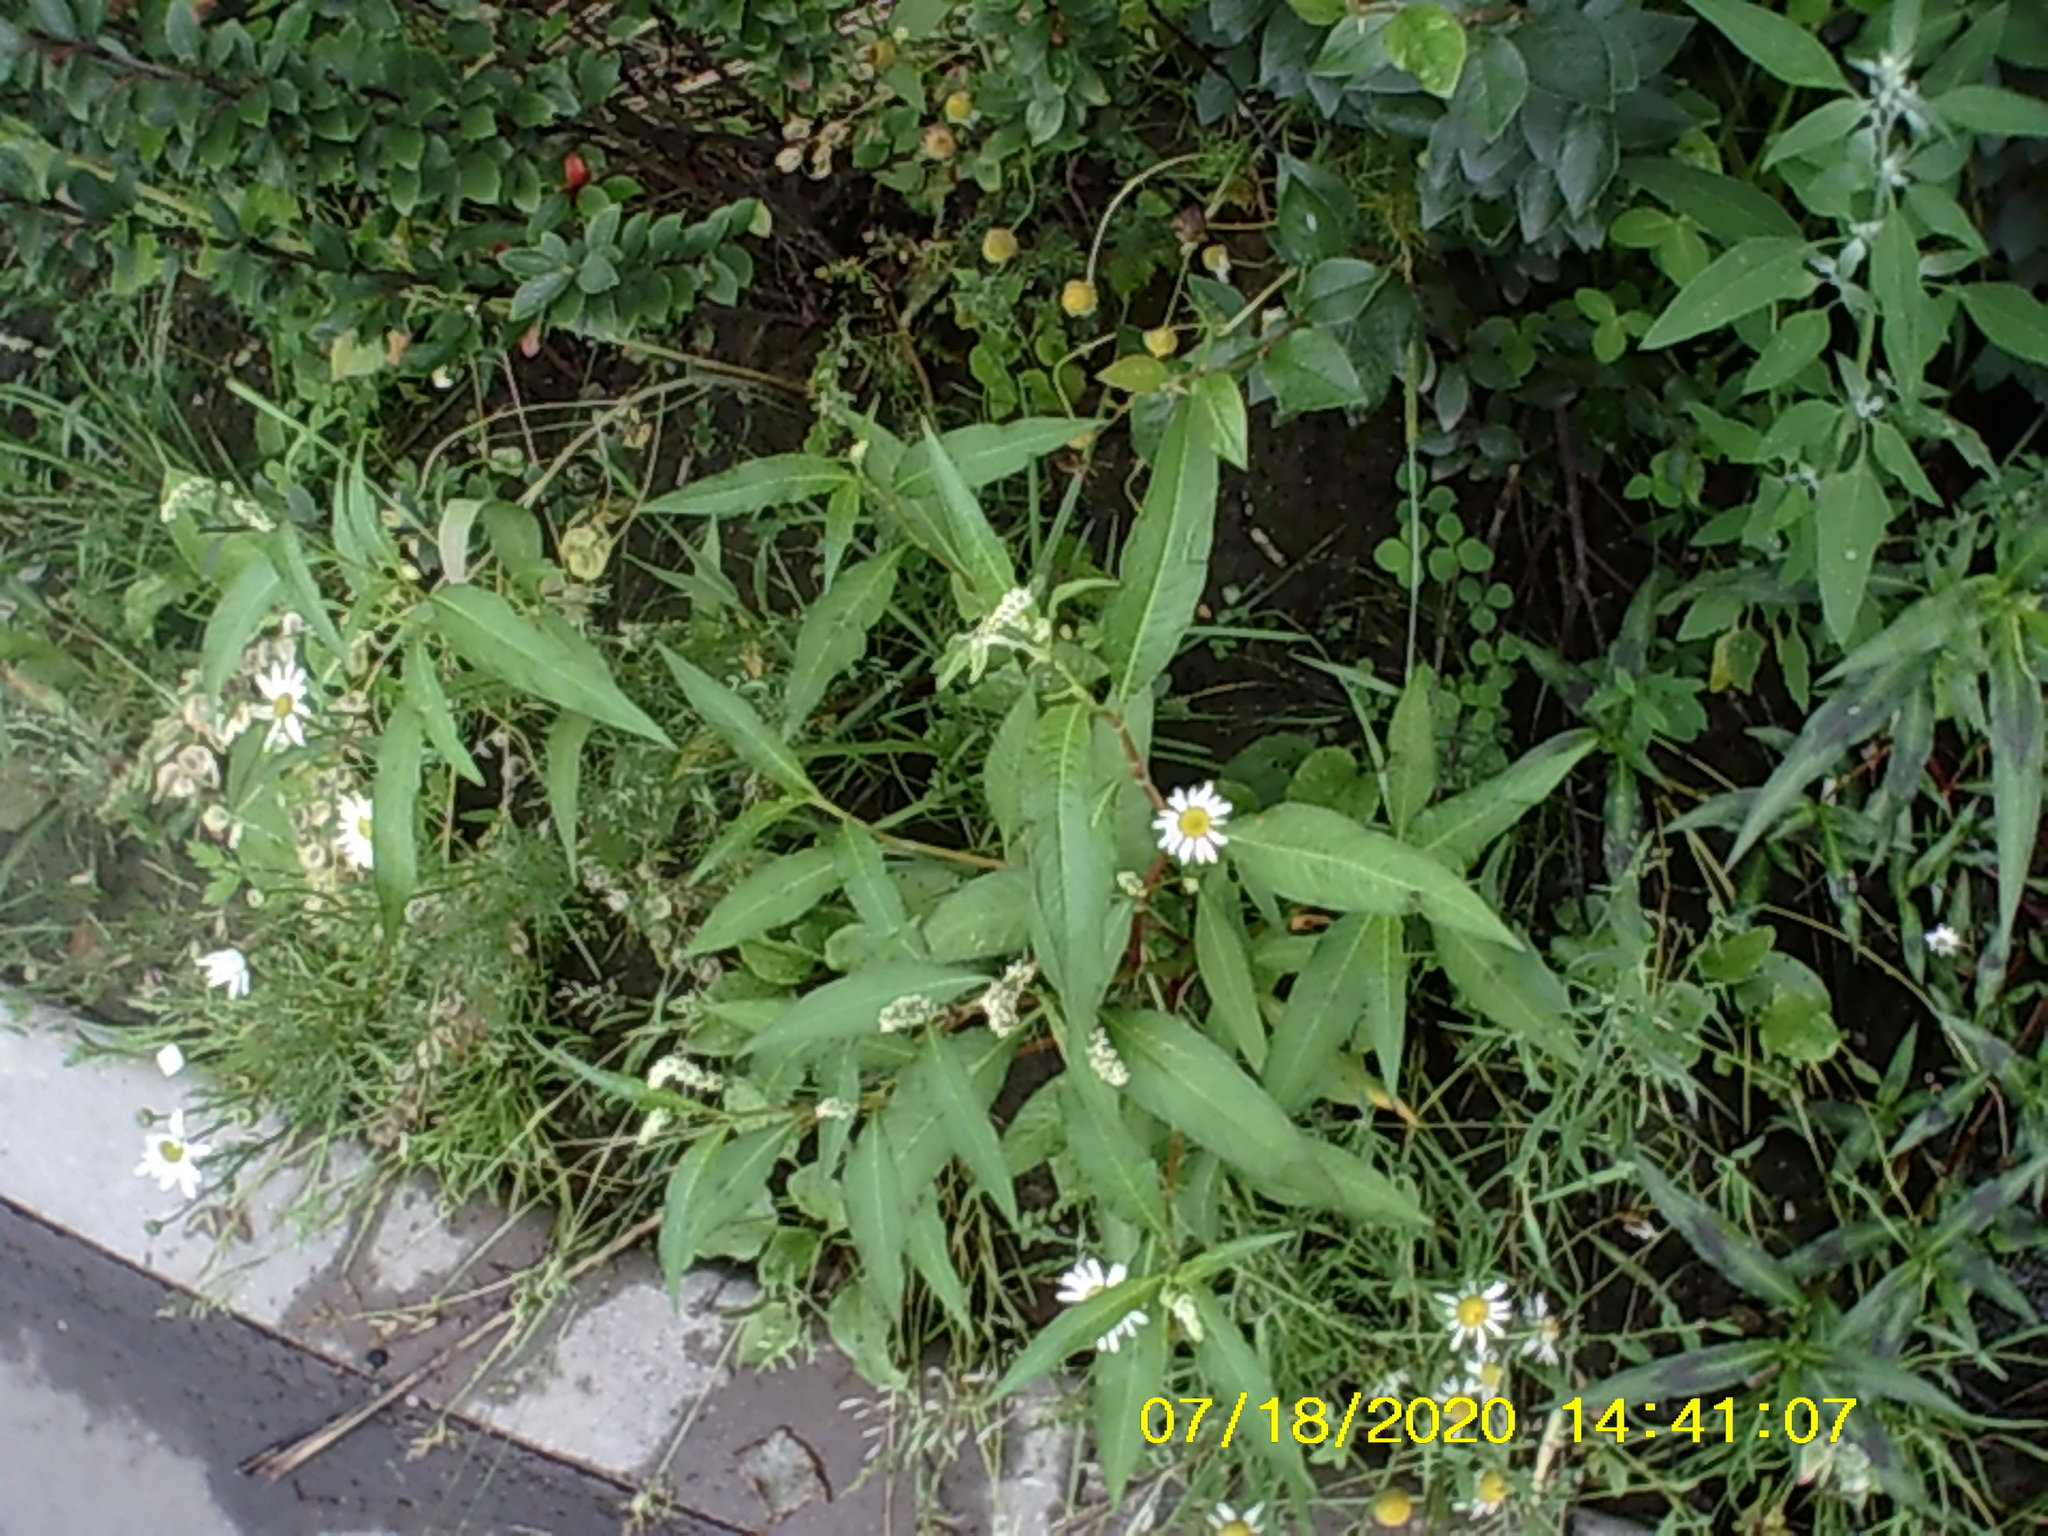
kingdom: Plantae
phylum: Tracheophyta
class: Magnoliopsida
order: Asterales
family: Asteraceae
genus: Tripleurospermum
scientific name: Tripleurospermum inodorum
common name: Scentless mayweed
